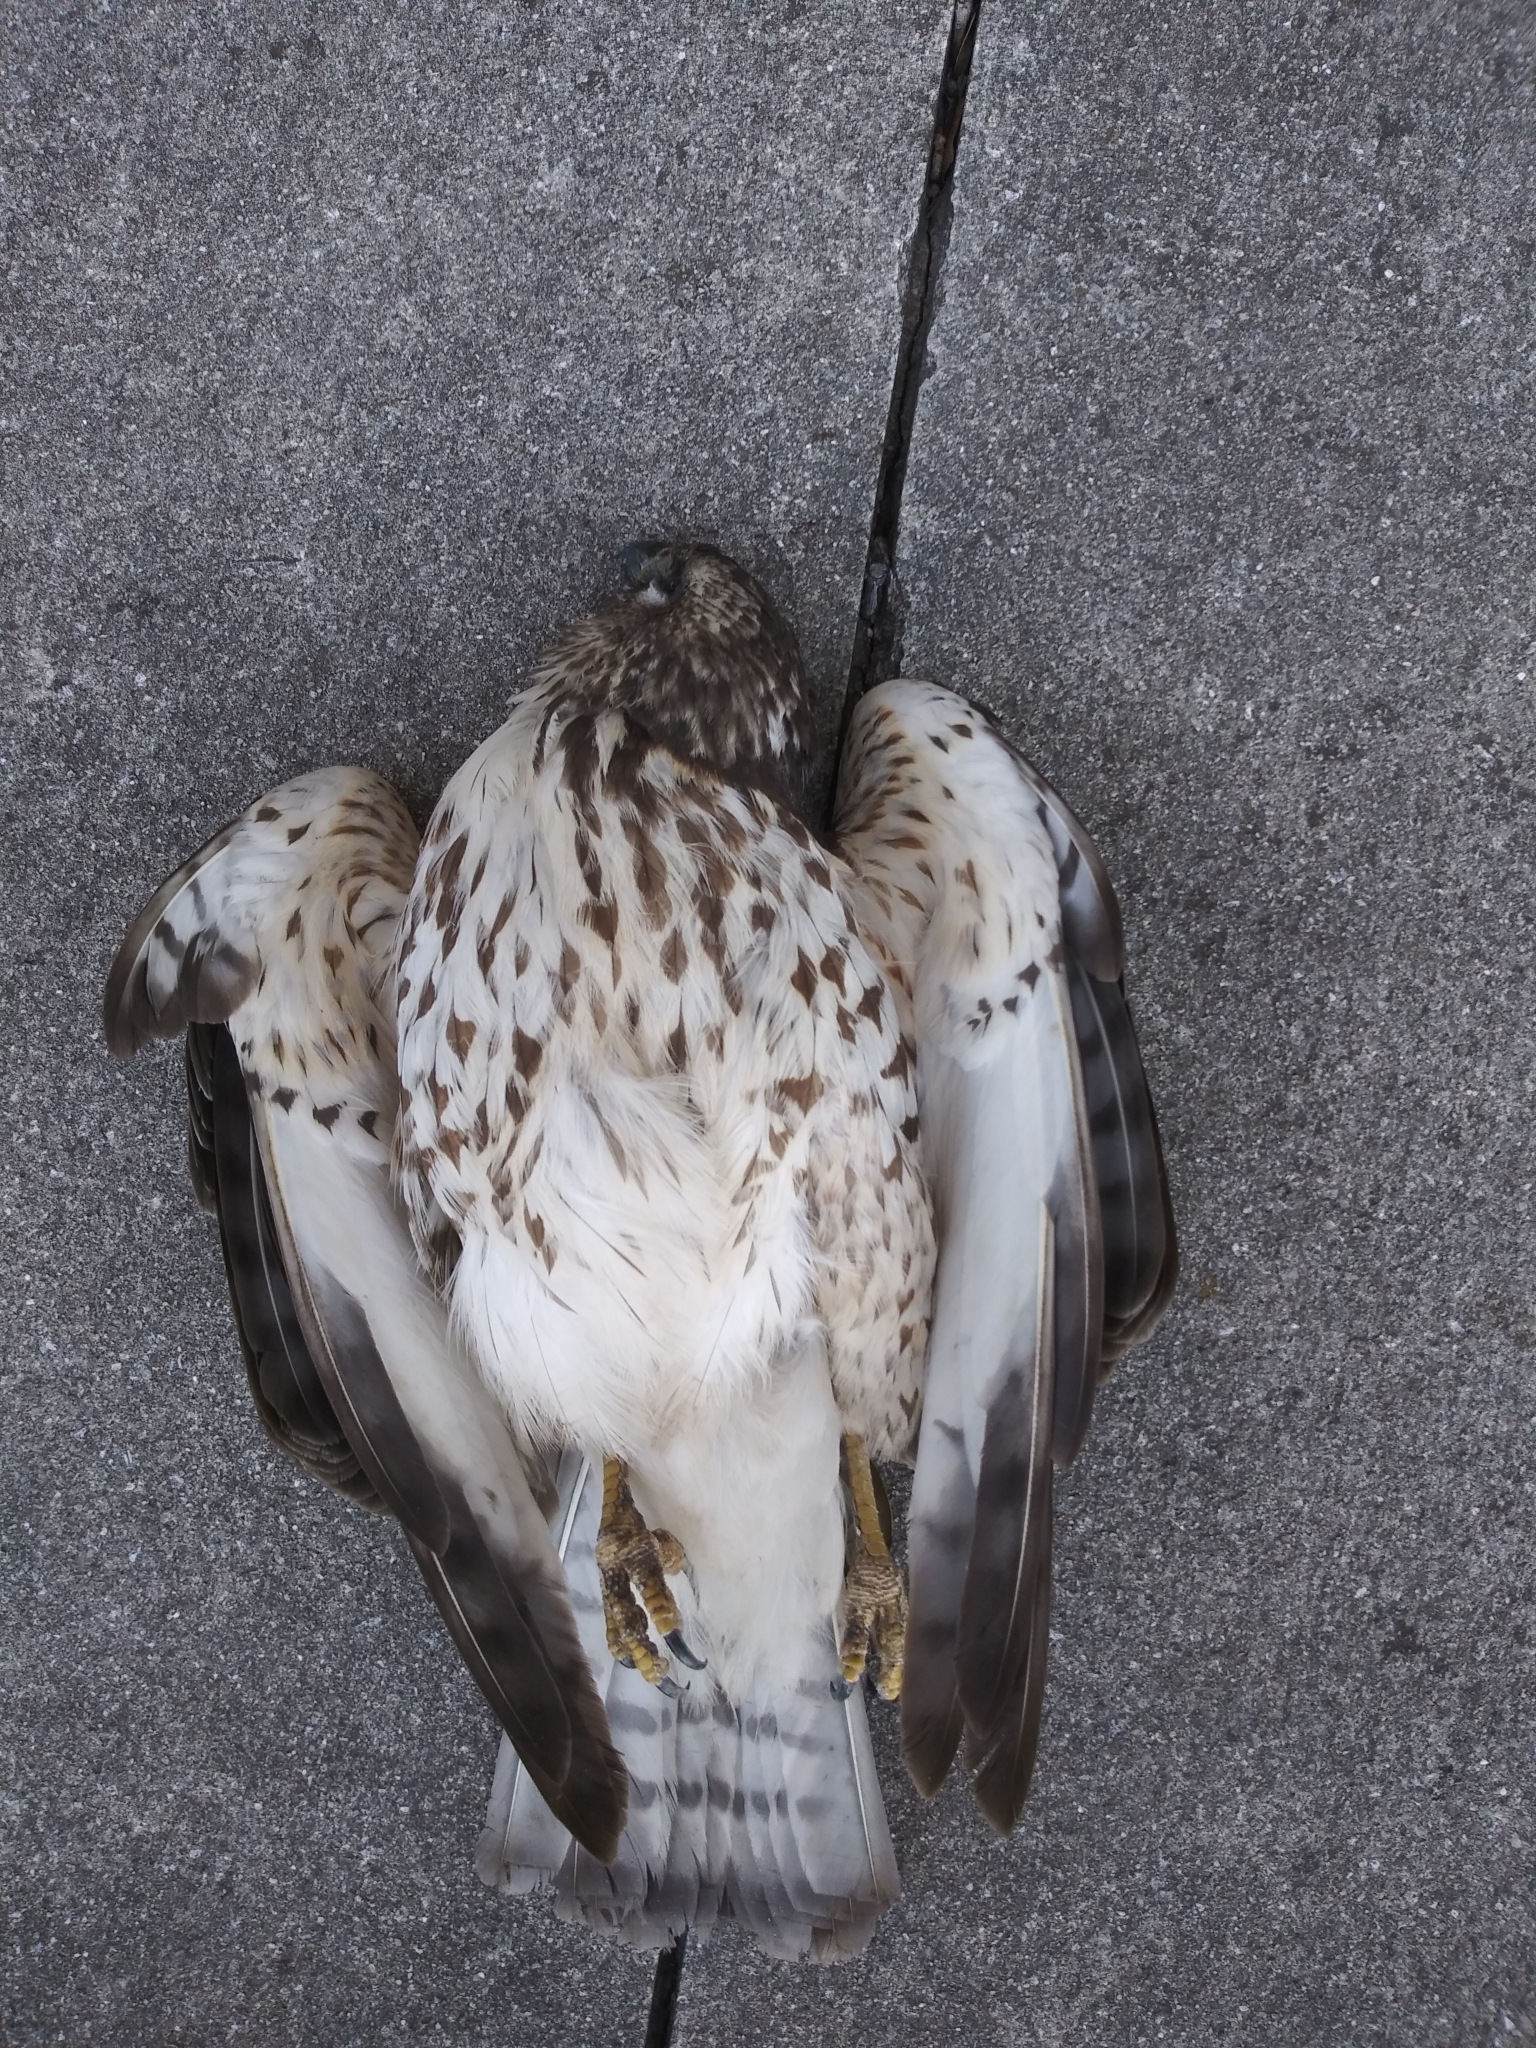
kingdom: Animalia
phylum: Chordata
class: Aves
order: Accipitriformes
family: Accipitridae
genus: Buteo
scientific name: Buteo platypterus
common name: Broad-winged hawk
